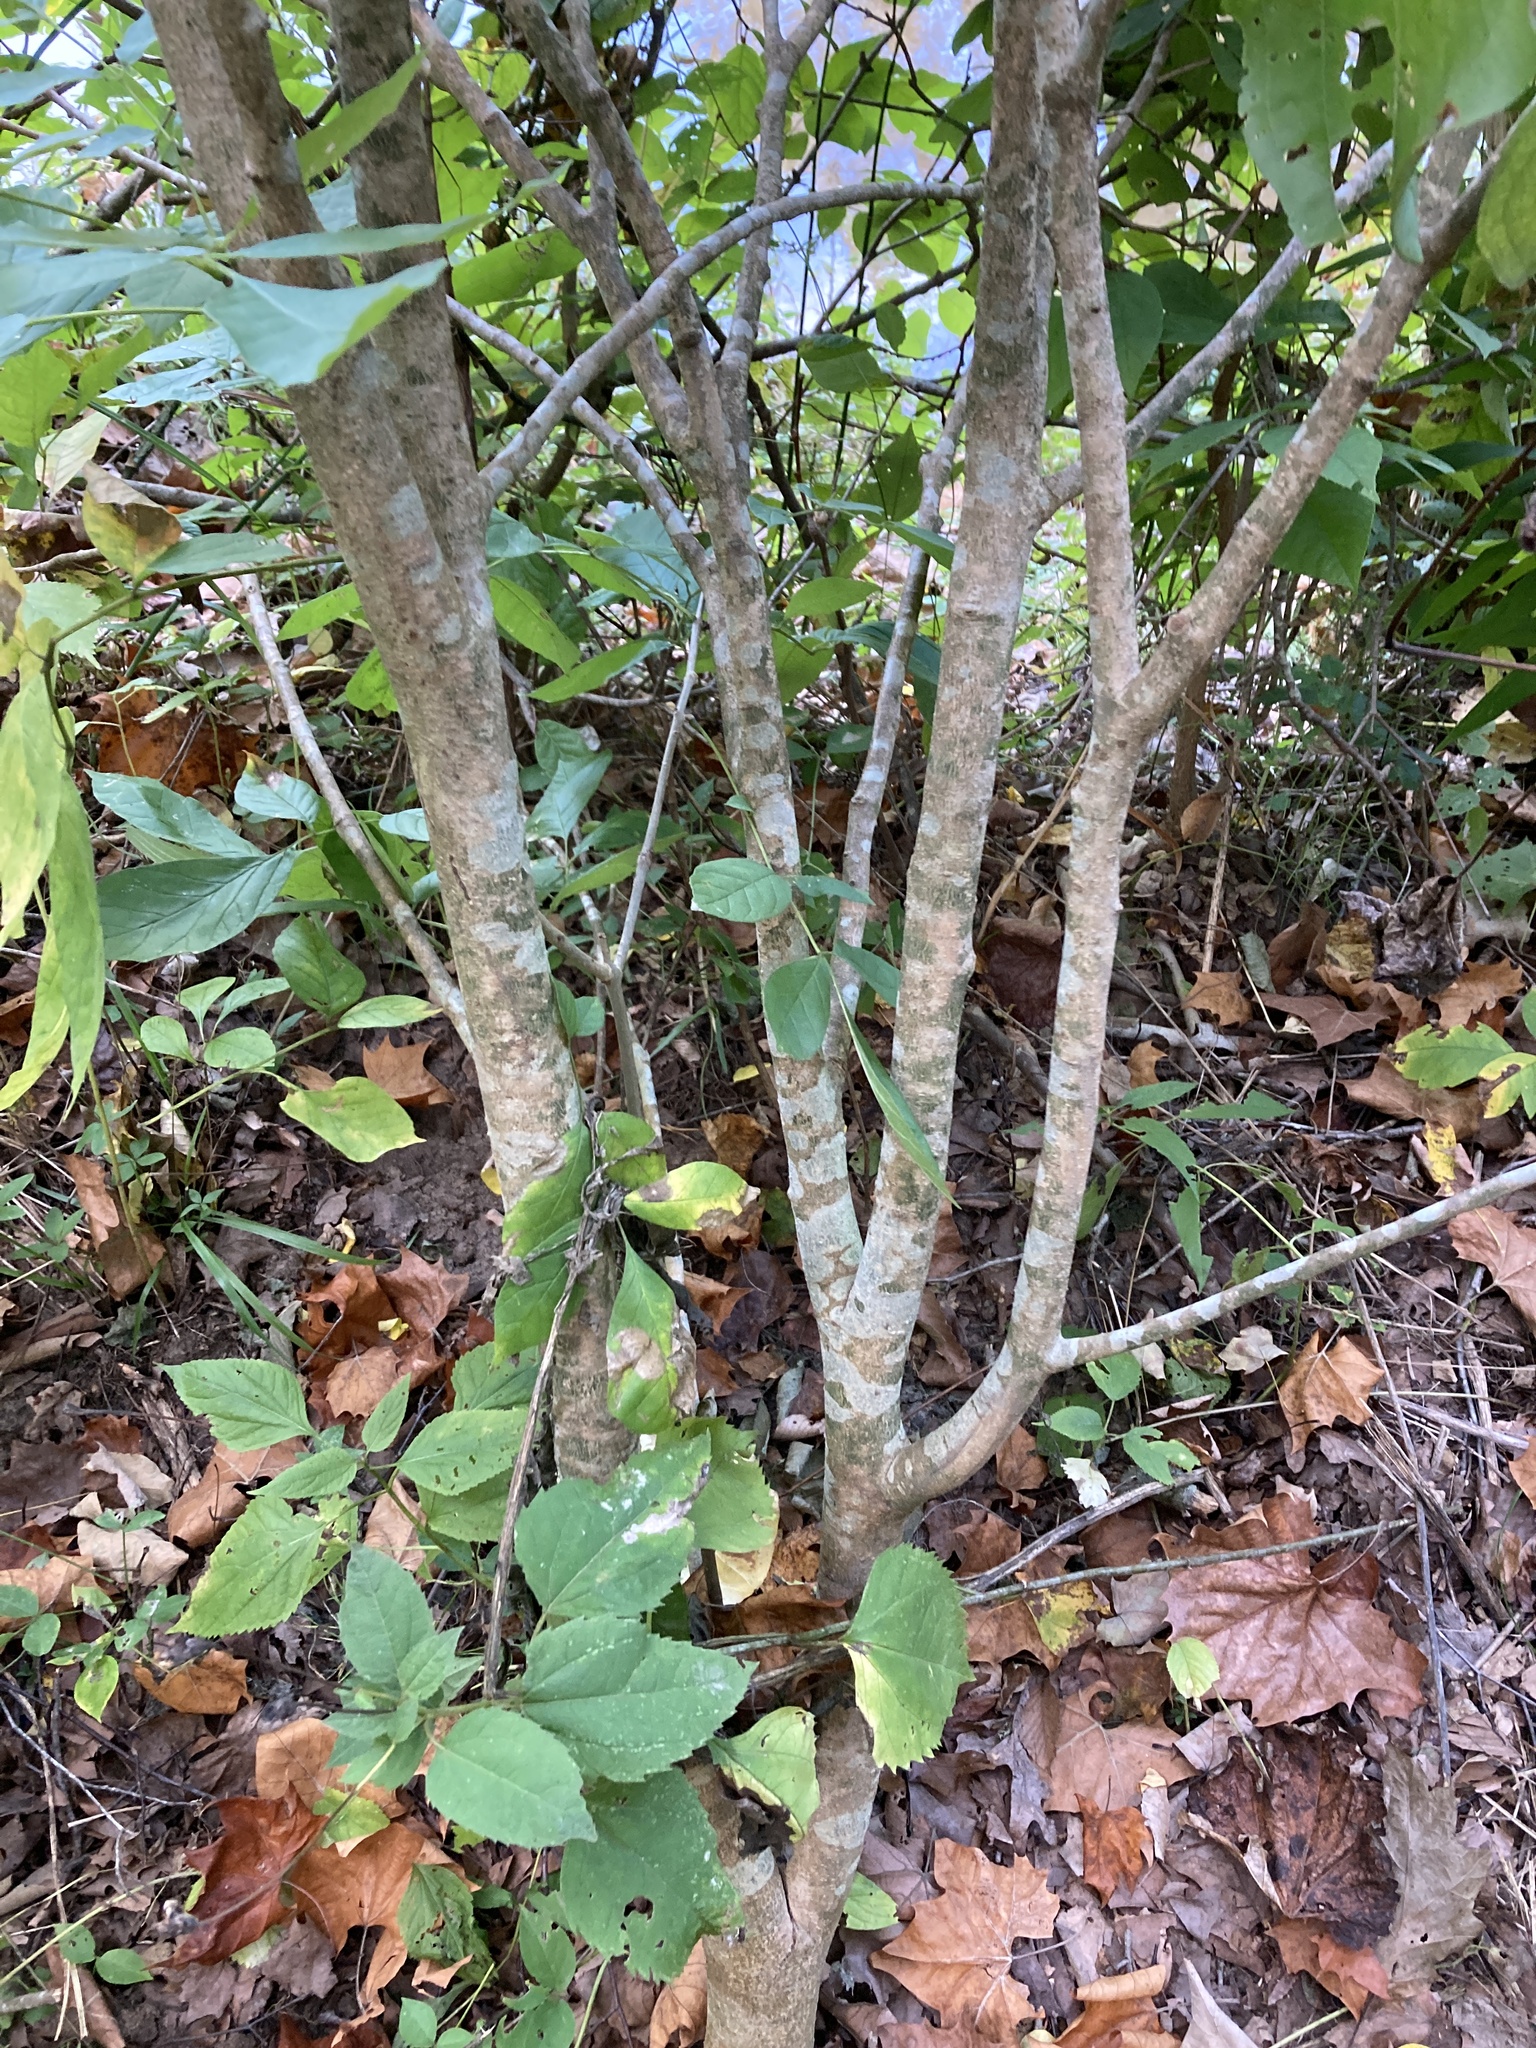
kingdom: Plantae
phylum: Tracheophyta
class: Magnoliopsida
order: Malvales
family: Thymelaeaceae
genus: Dirca
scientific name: Dirca palustris
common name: Leatherwood
